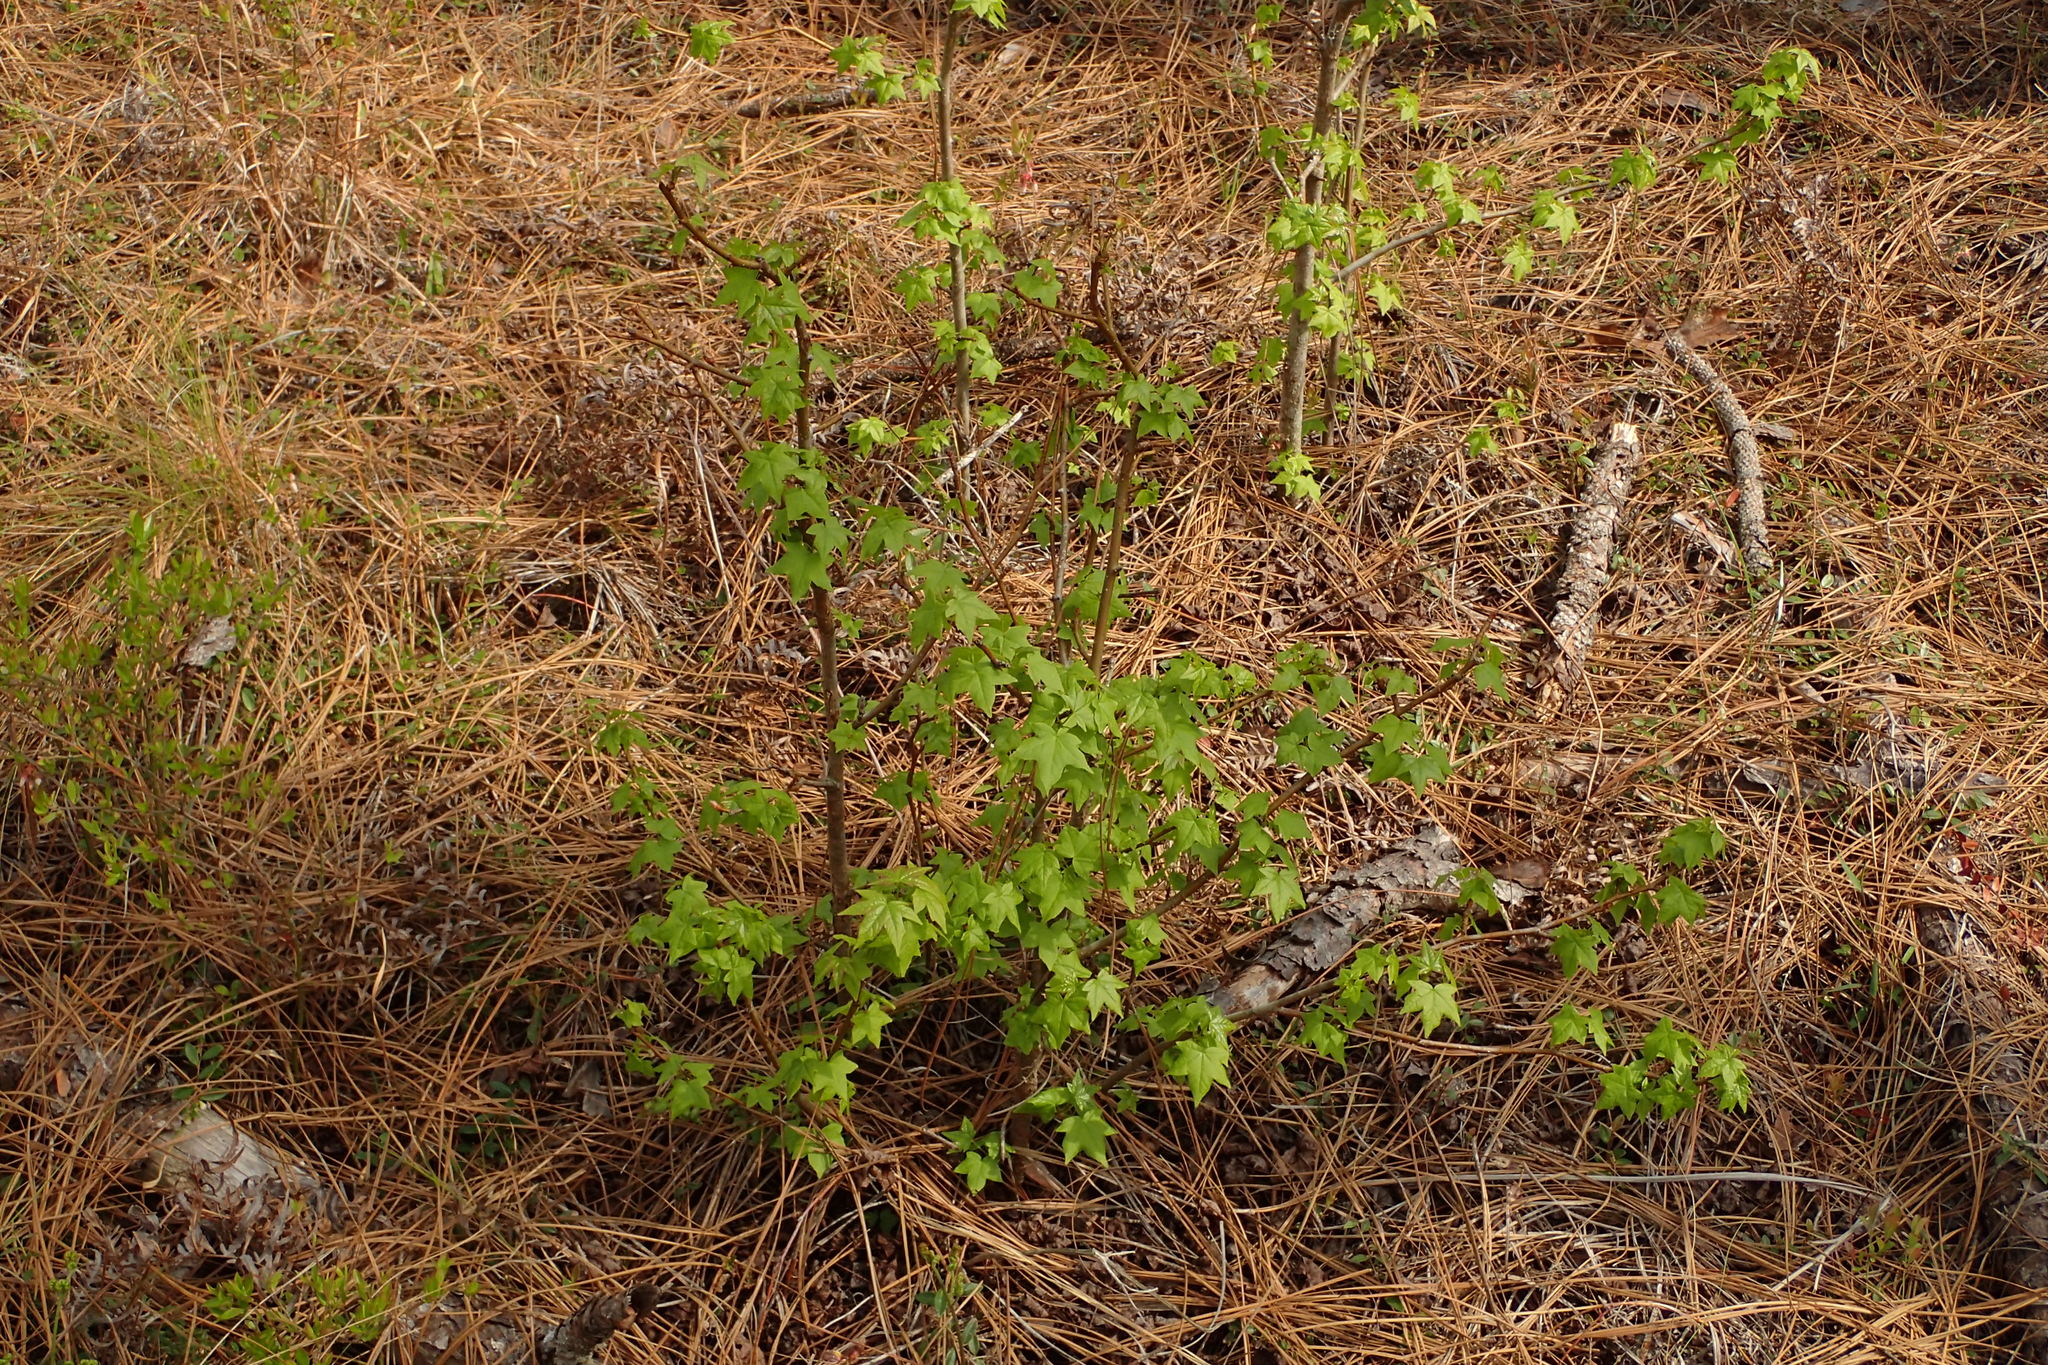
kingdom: Plantae
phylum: Tracheophyta
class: Magnoliopsida
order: Saxifragales
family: Altingiaceae
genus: Liquidambar
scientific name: Liquidambar styraciflua
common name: Sweet gum
